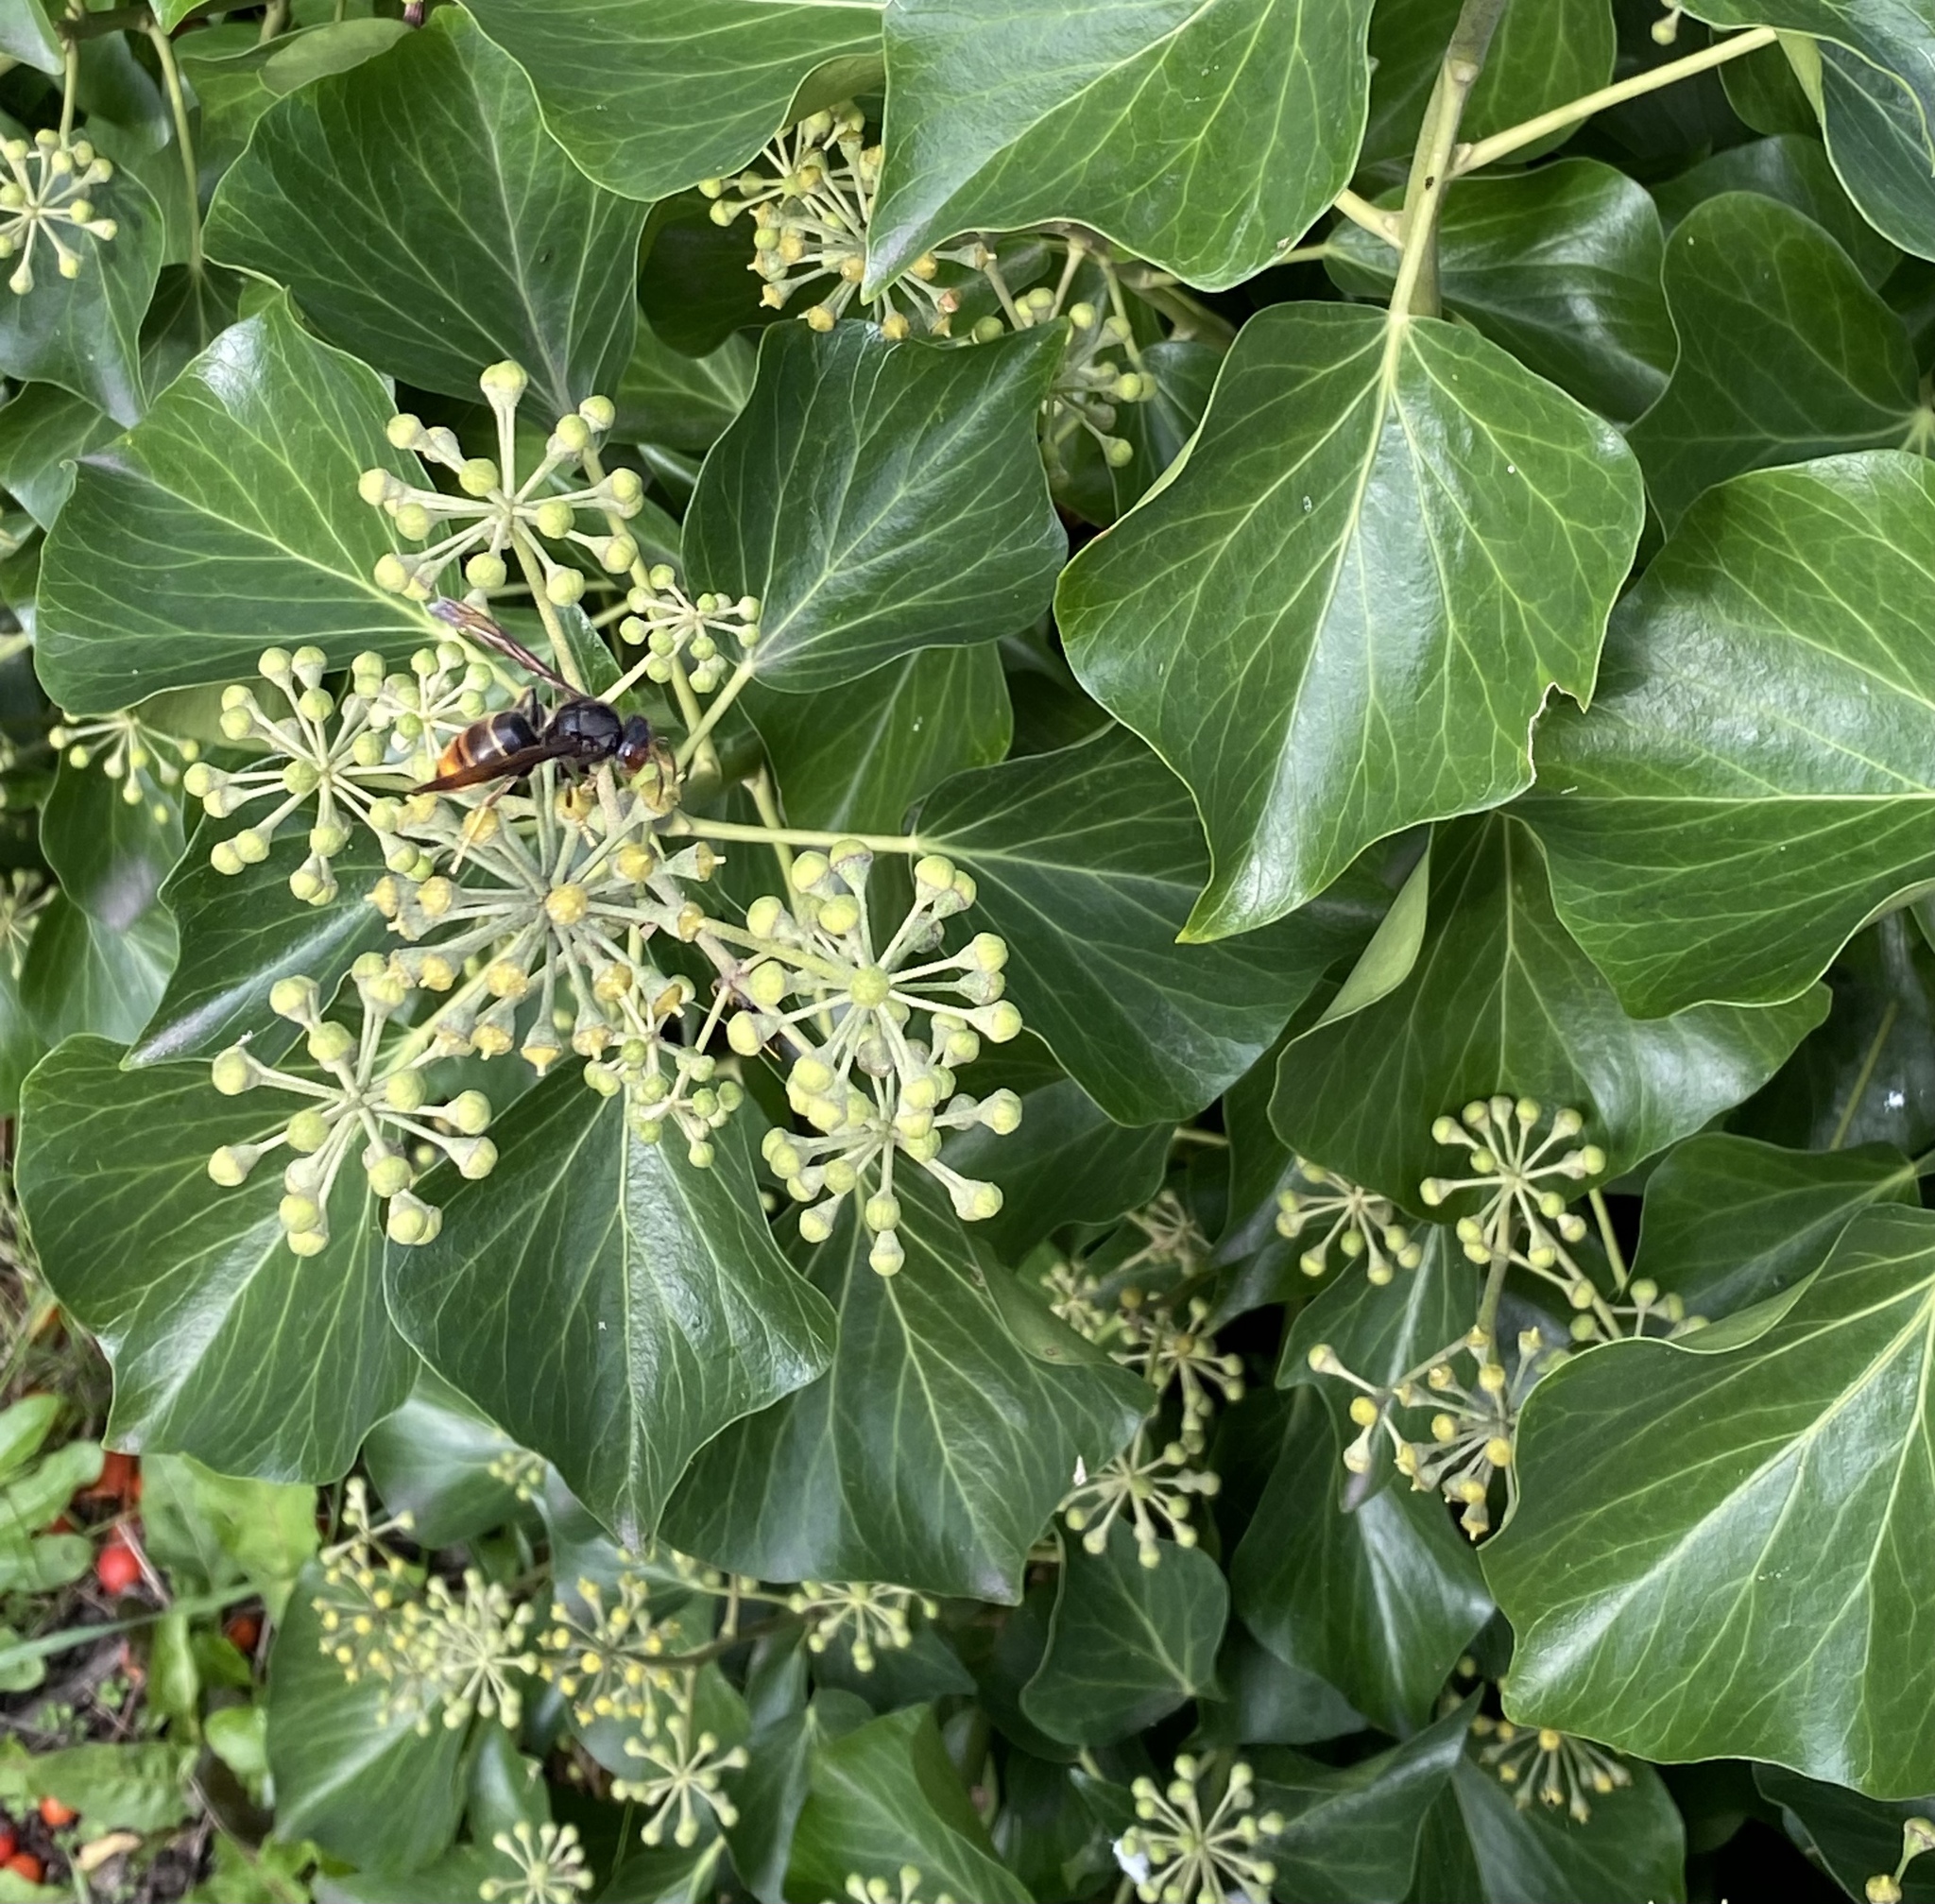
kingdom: Animalia
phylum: Arthropoda
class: Insecta
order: Hymenoptera
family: Vespidae
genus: Vespa
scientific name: Vespa velutina
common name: Asian hornet
